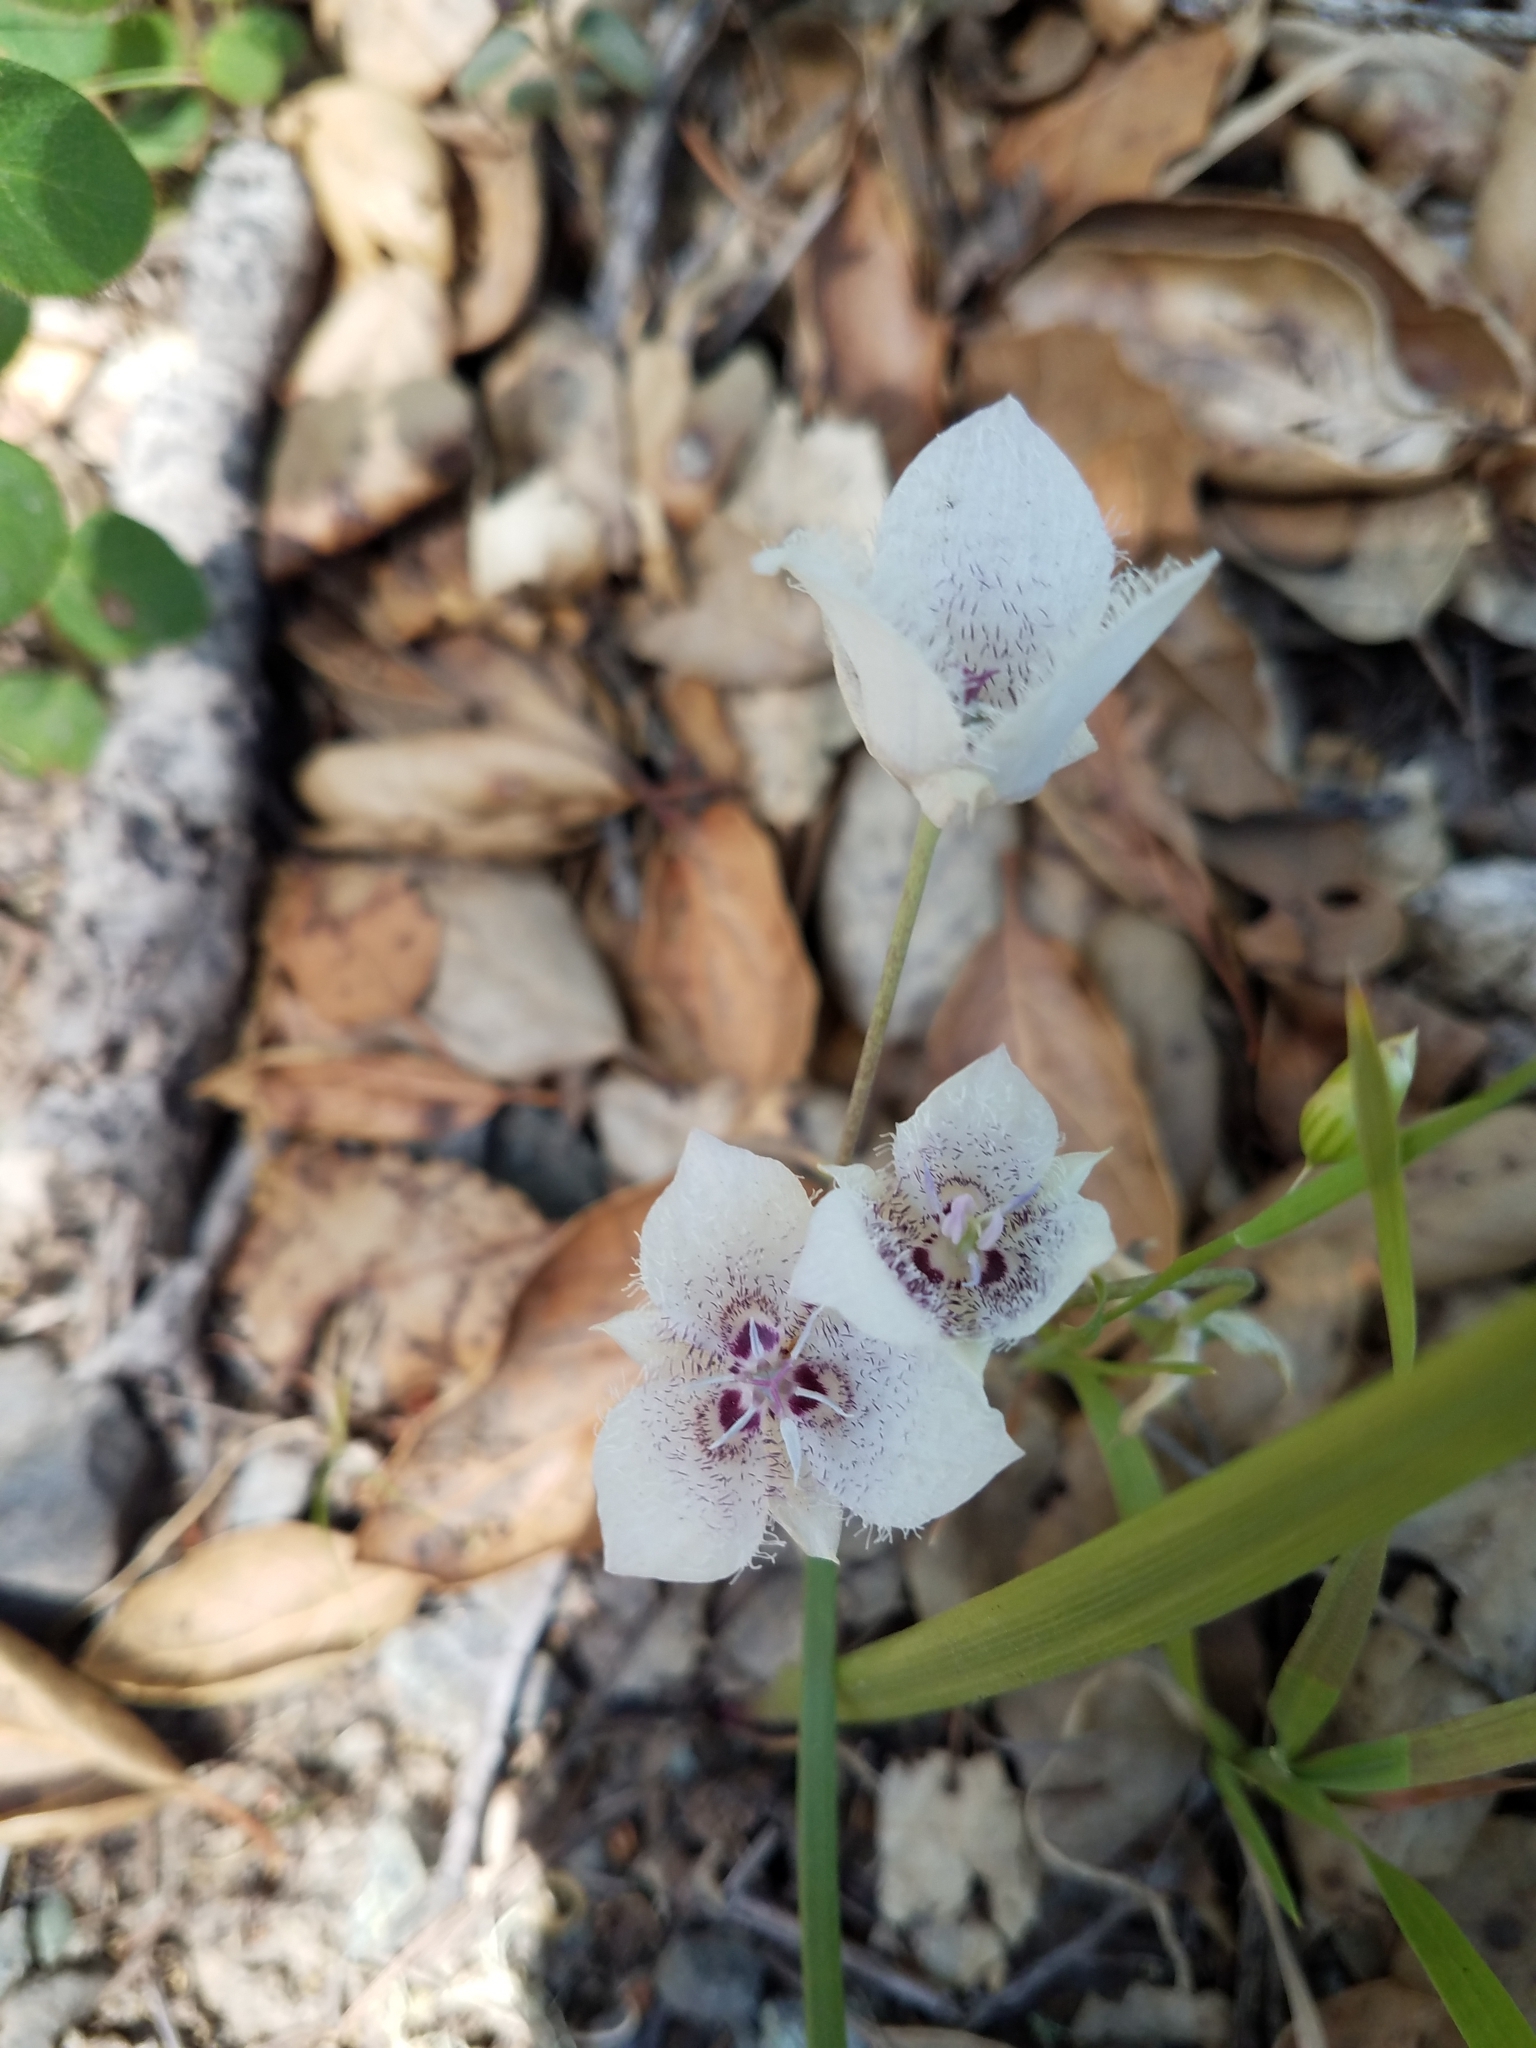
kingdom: Plantae
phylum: Tracheophyta
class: Liliopsida
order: Liliales
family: Liliaceae
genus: Calochortus
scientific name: Calochortus tolmiei
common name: Pussy-ears
